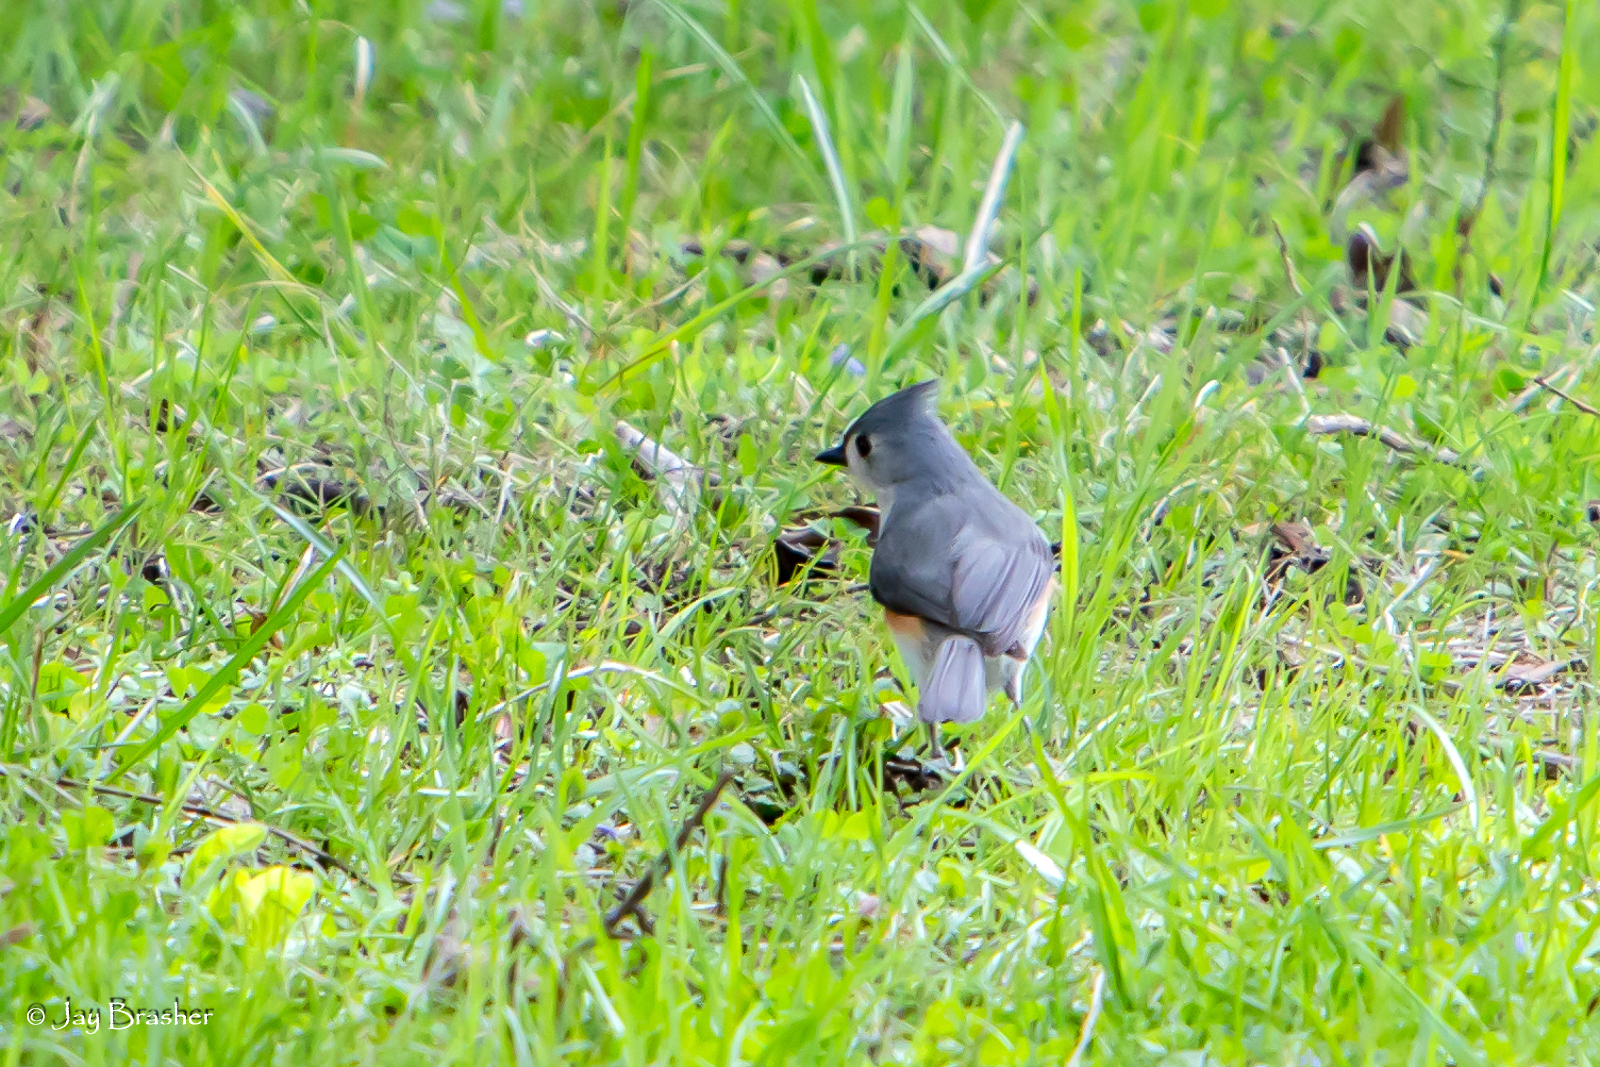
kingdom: Animalia
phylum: Chordata
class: Aves
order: Passeriformes
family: Paridae
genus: Baeolophus
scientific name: Baeolophus bicolor
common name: Tufted titmouse
